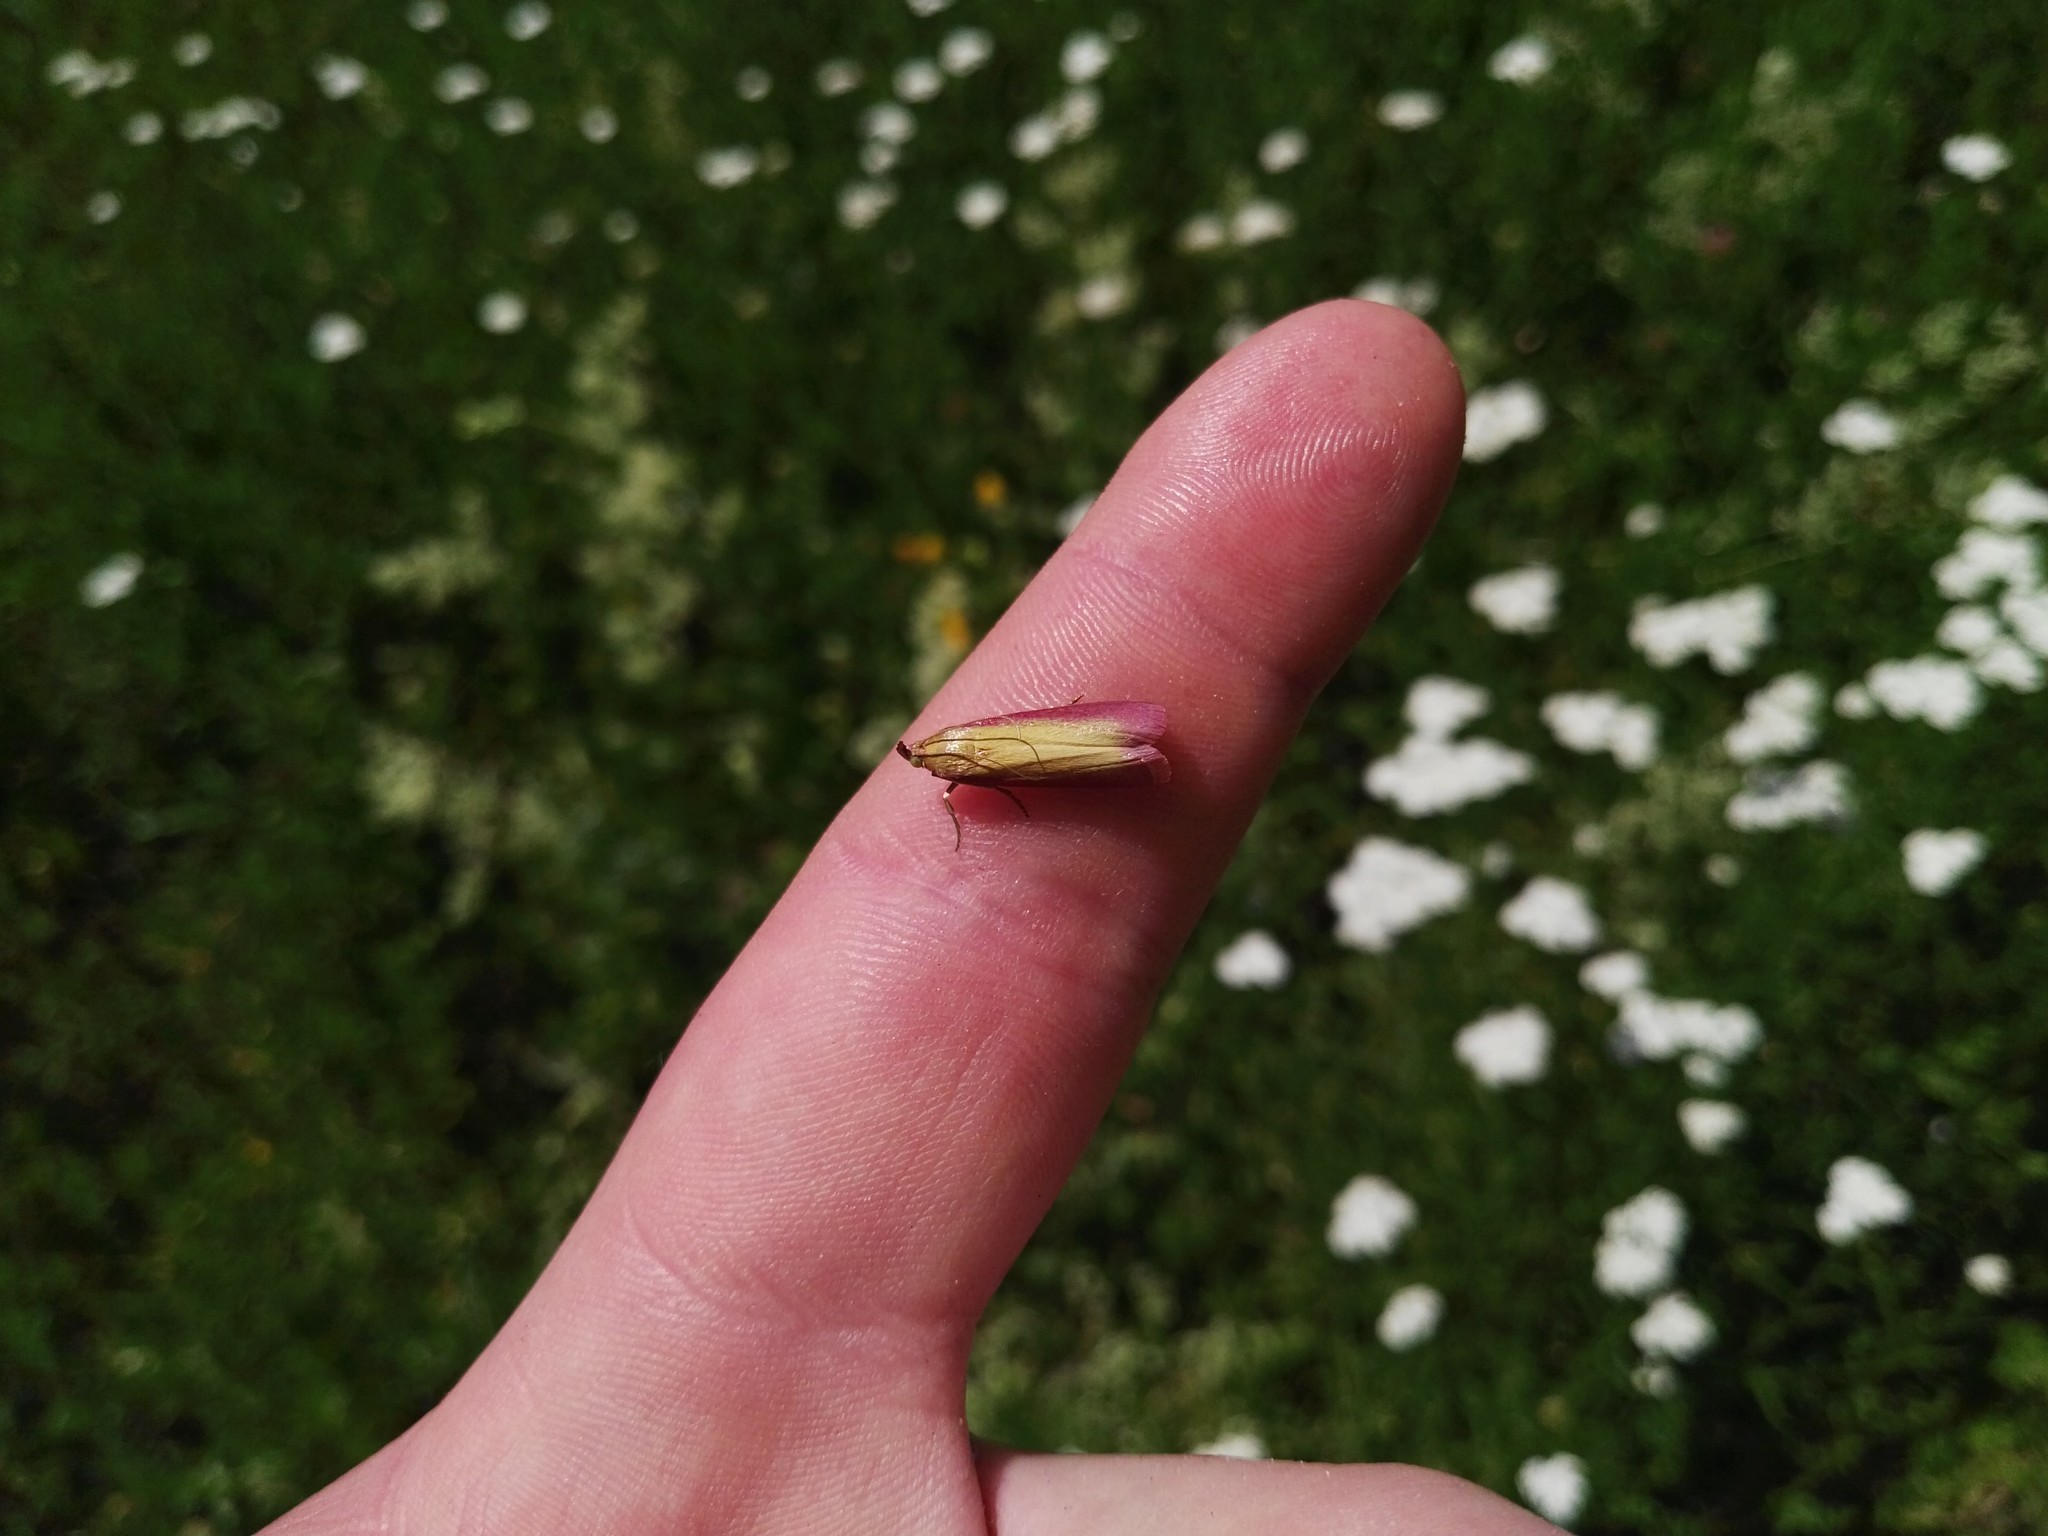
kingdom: Animalia
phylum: Arthropoda
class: Insecta
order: Lepidoptera
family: Pyralidae
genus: Oncocera
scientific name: Oncocera semirubella
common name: Rosy-striped knot-horn
